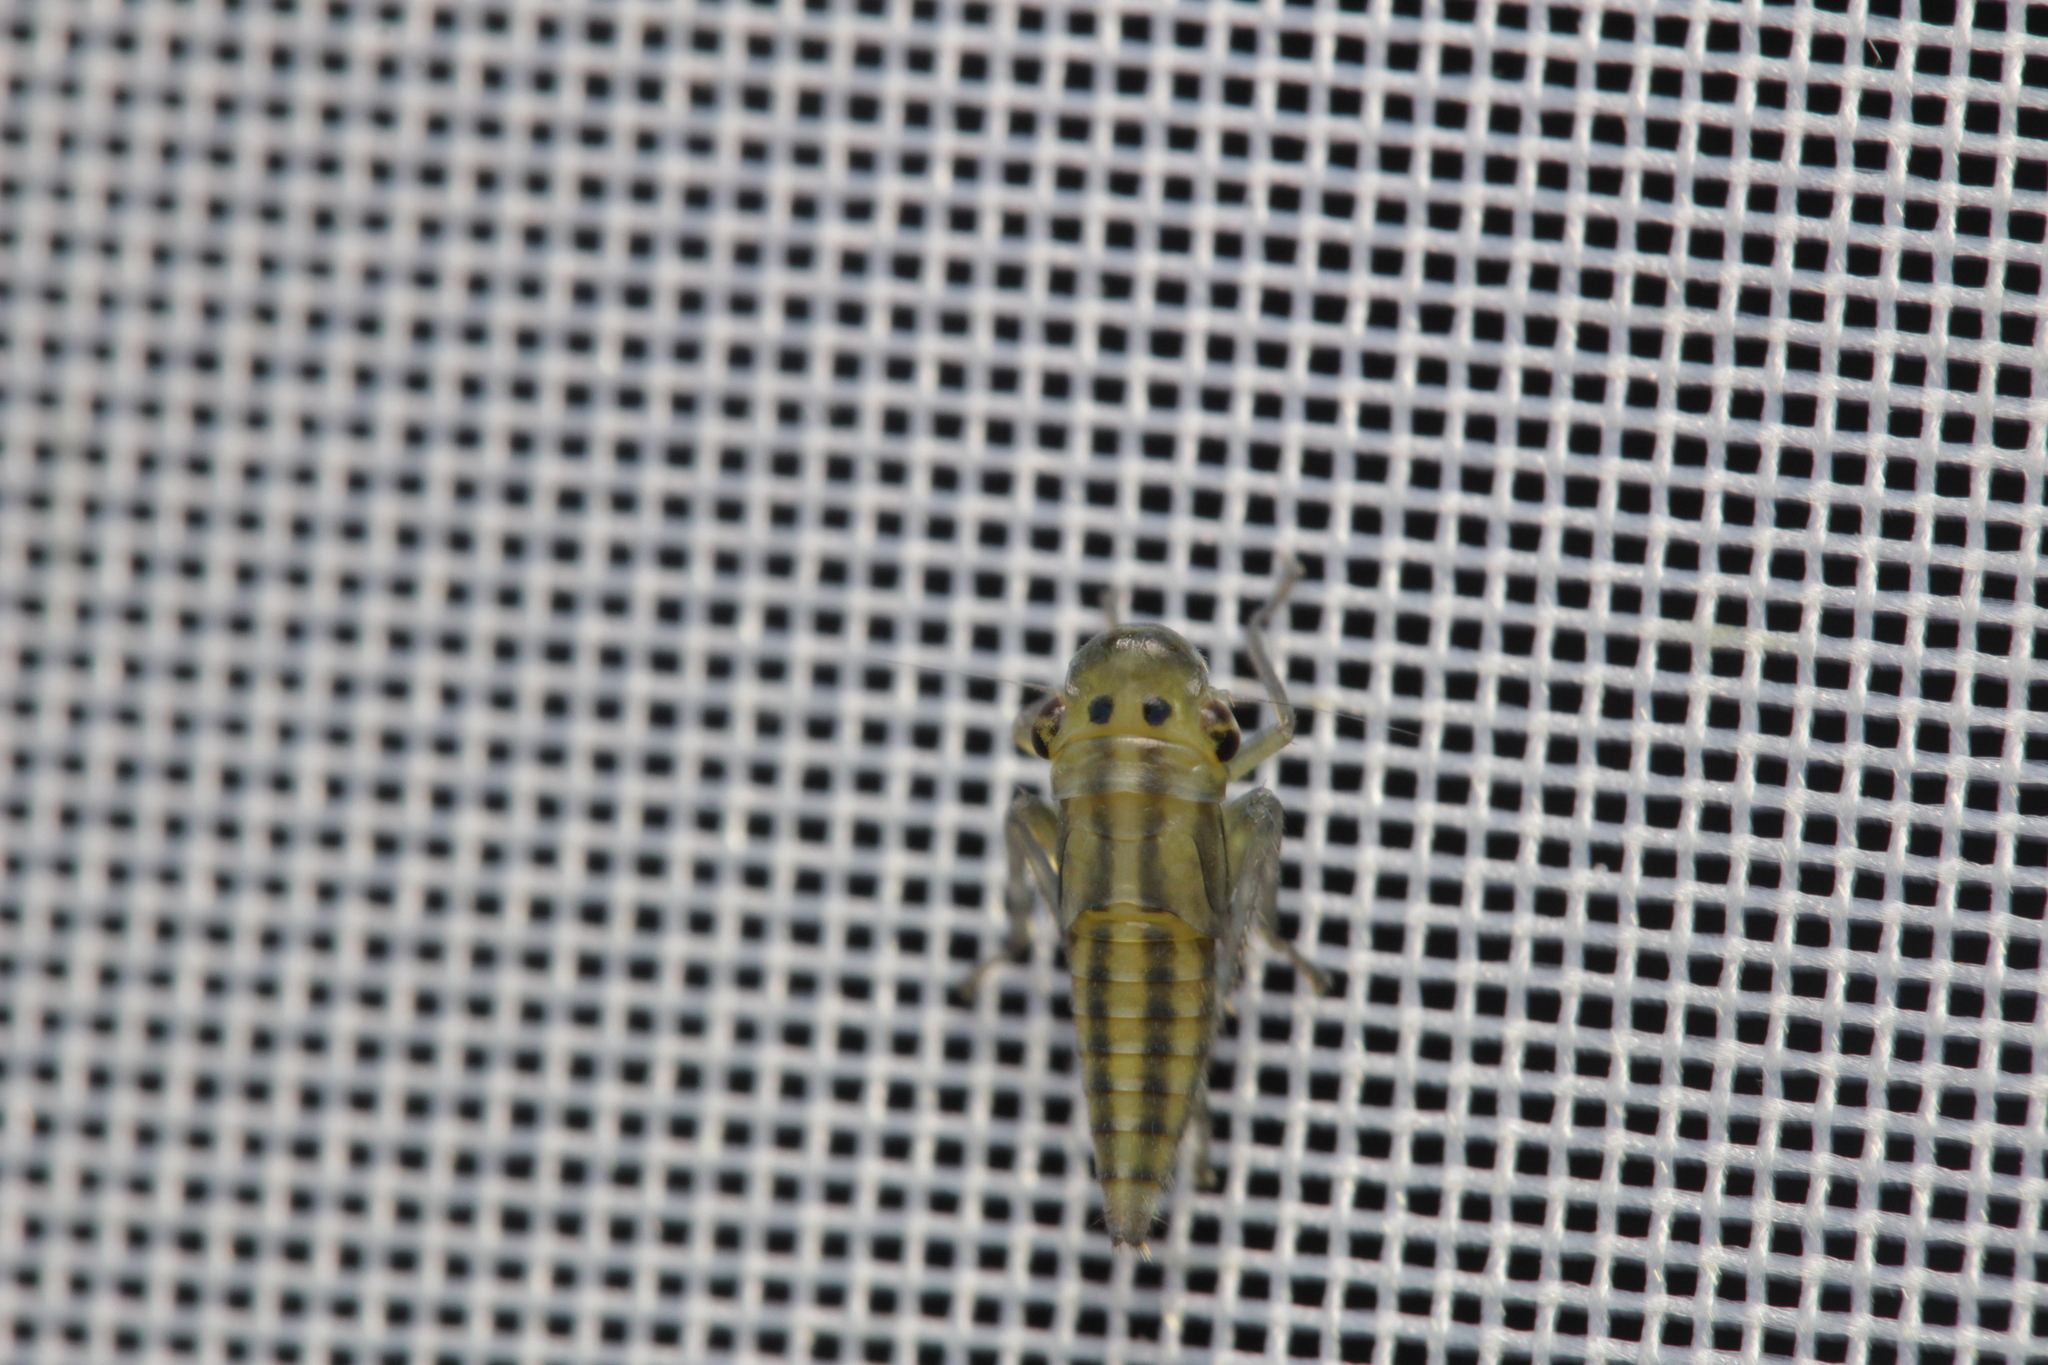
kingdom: Animalia
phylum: Arthropoda
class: Insecta
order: Hemiptera
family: Cicadellidae
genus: Cicadella
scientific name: Cicadella viridis
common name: Leafhopper
